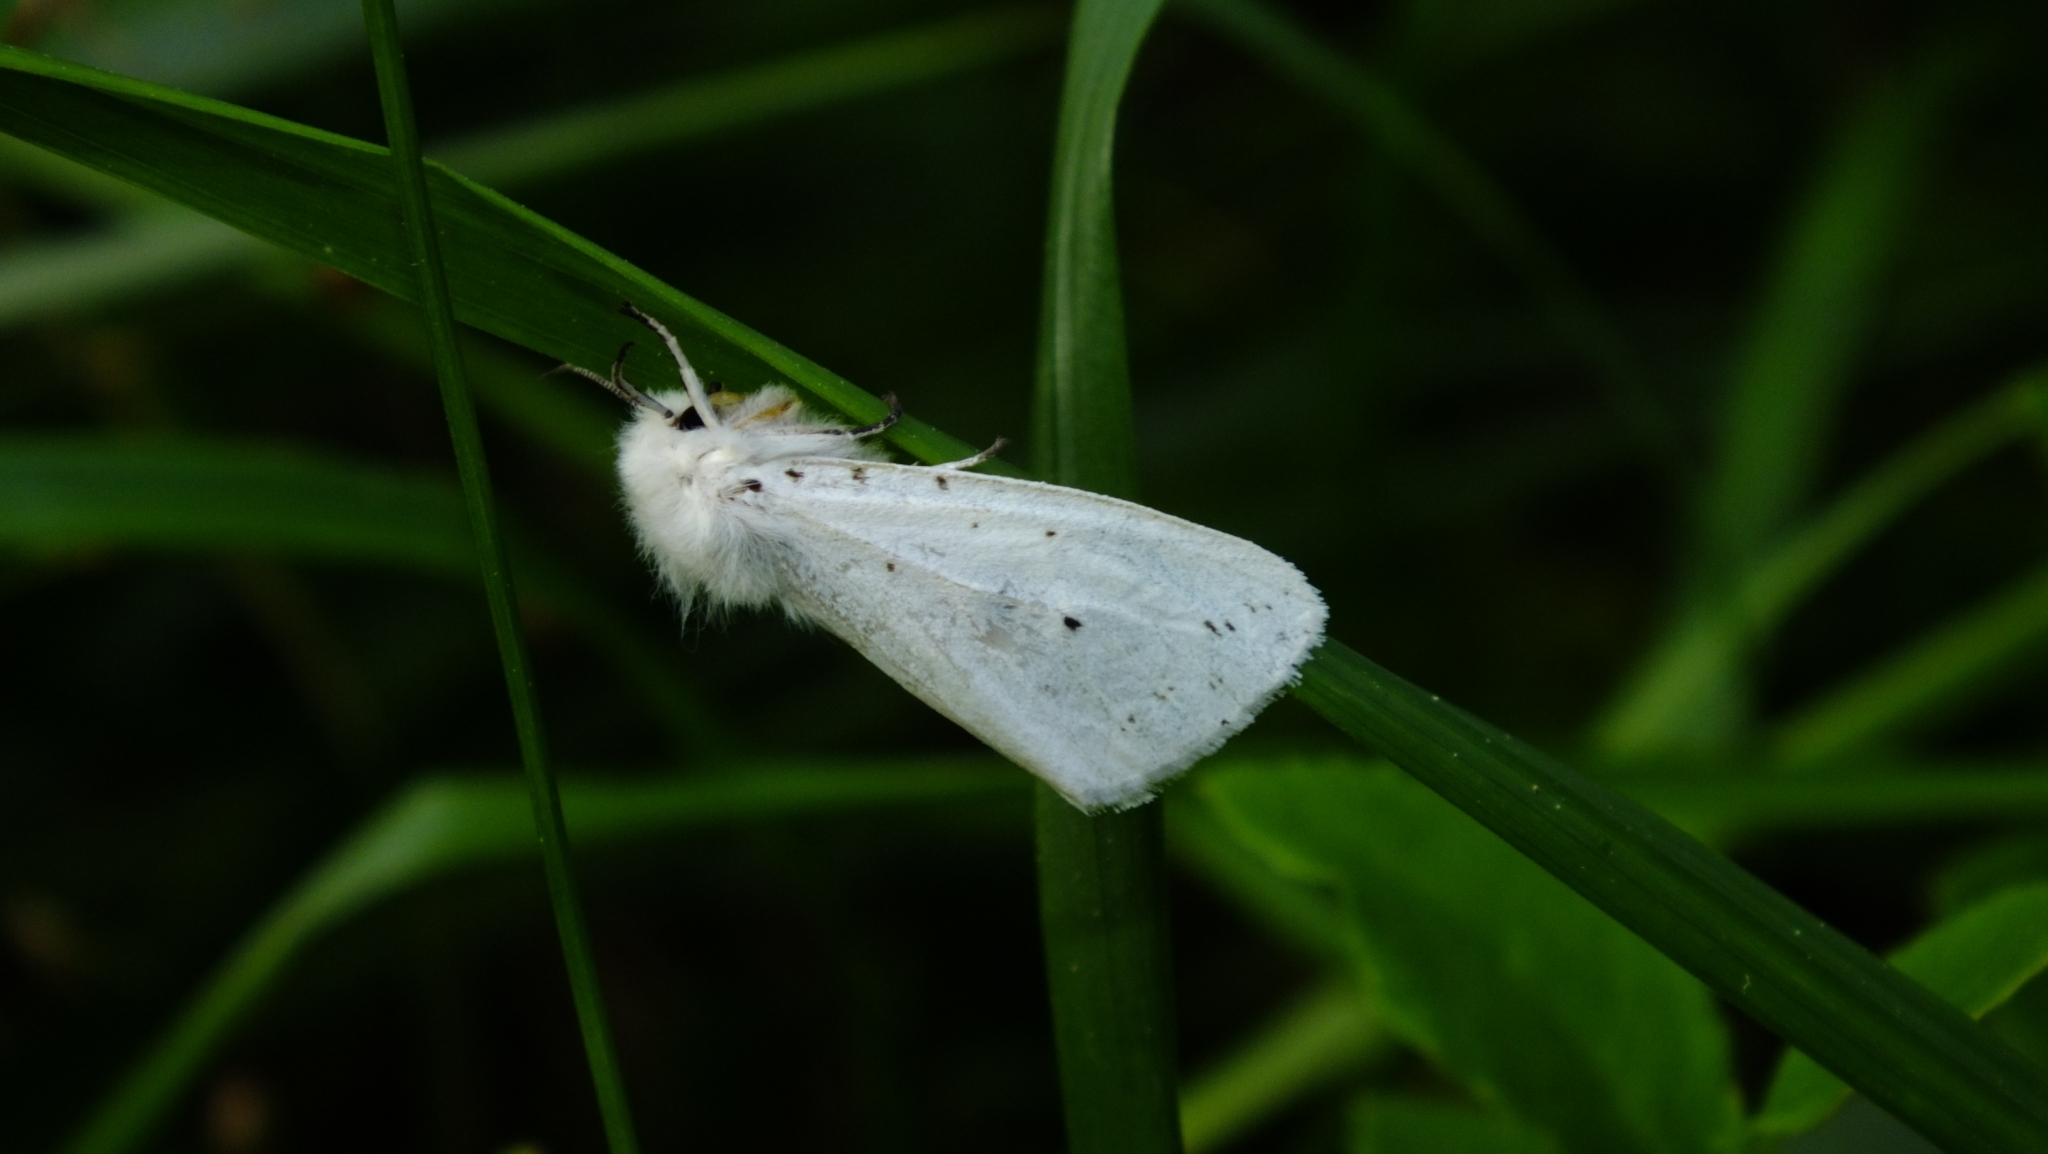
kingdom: Animalia
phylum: Arthropoda
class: Insecta
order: Lepidoptera
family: Erebidae
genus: Spilosoma
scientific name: Spilosoma lubricipeda
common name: White ermine
